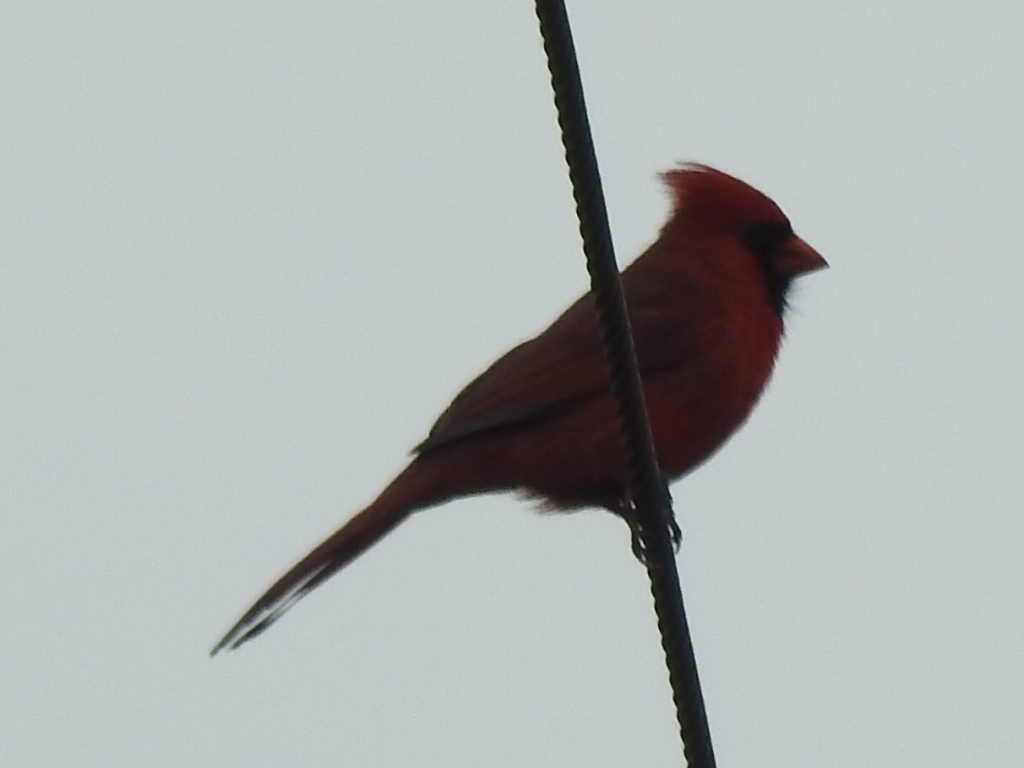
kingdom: Animalia
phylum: Chordata
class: Aves
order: Passeriformes
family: Cardinalidae
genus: Cardinalis
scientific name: Cardinalis cardinalis
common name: Northern cardinal
